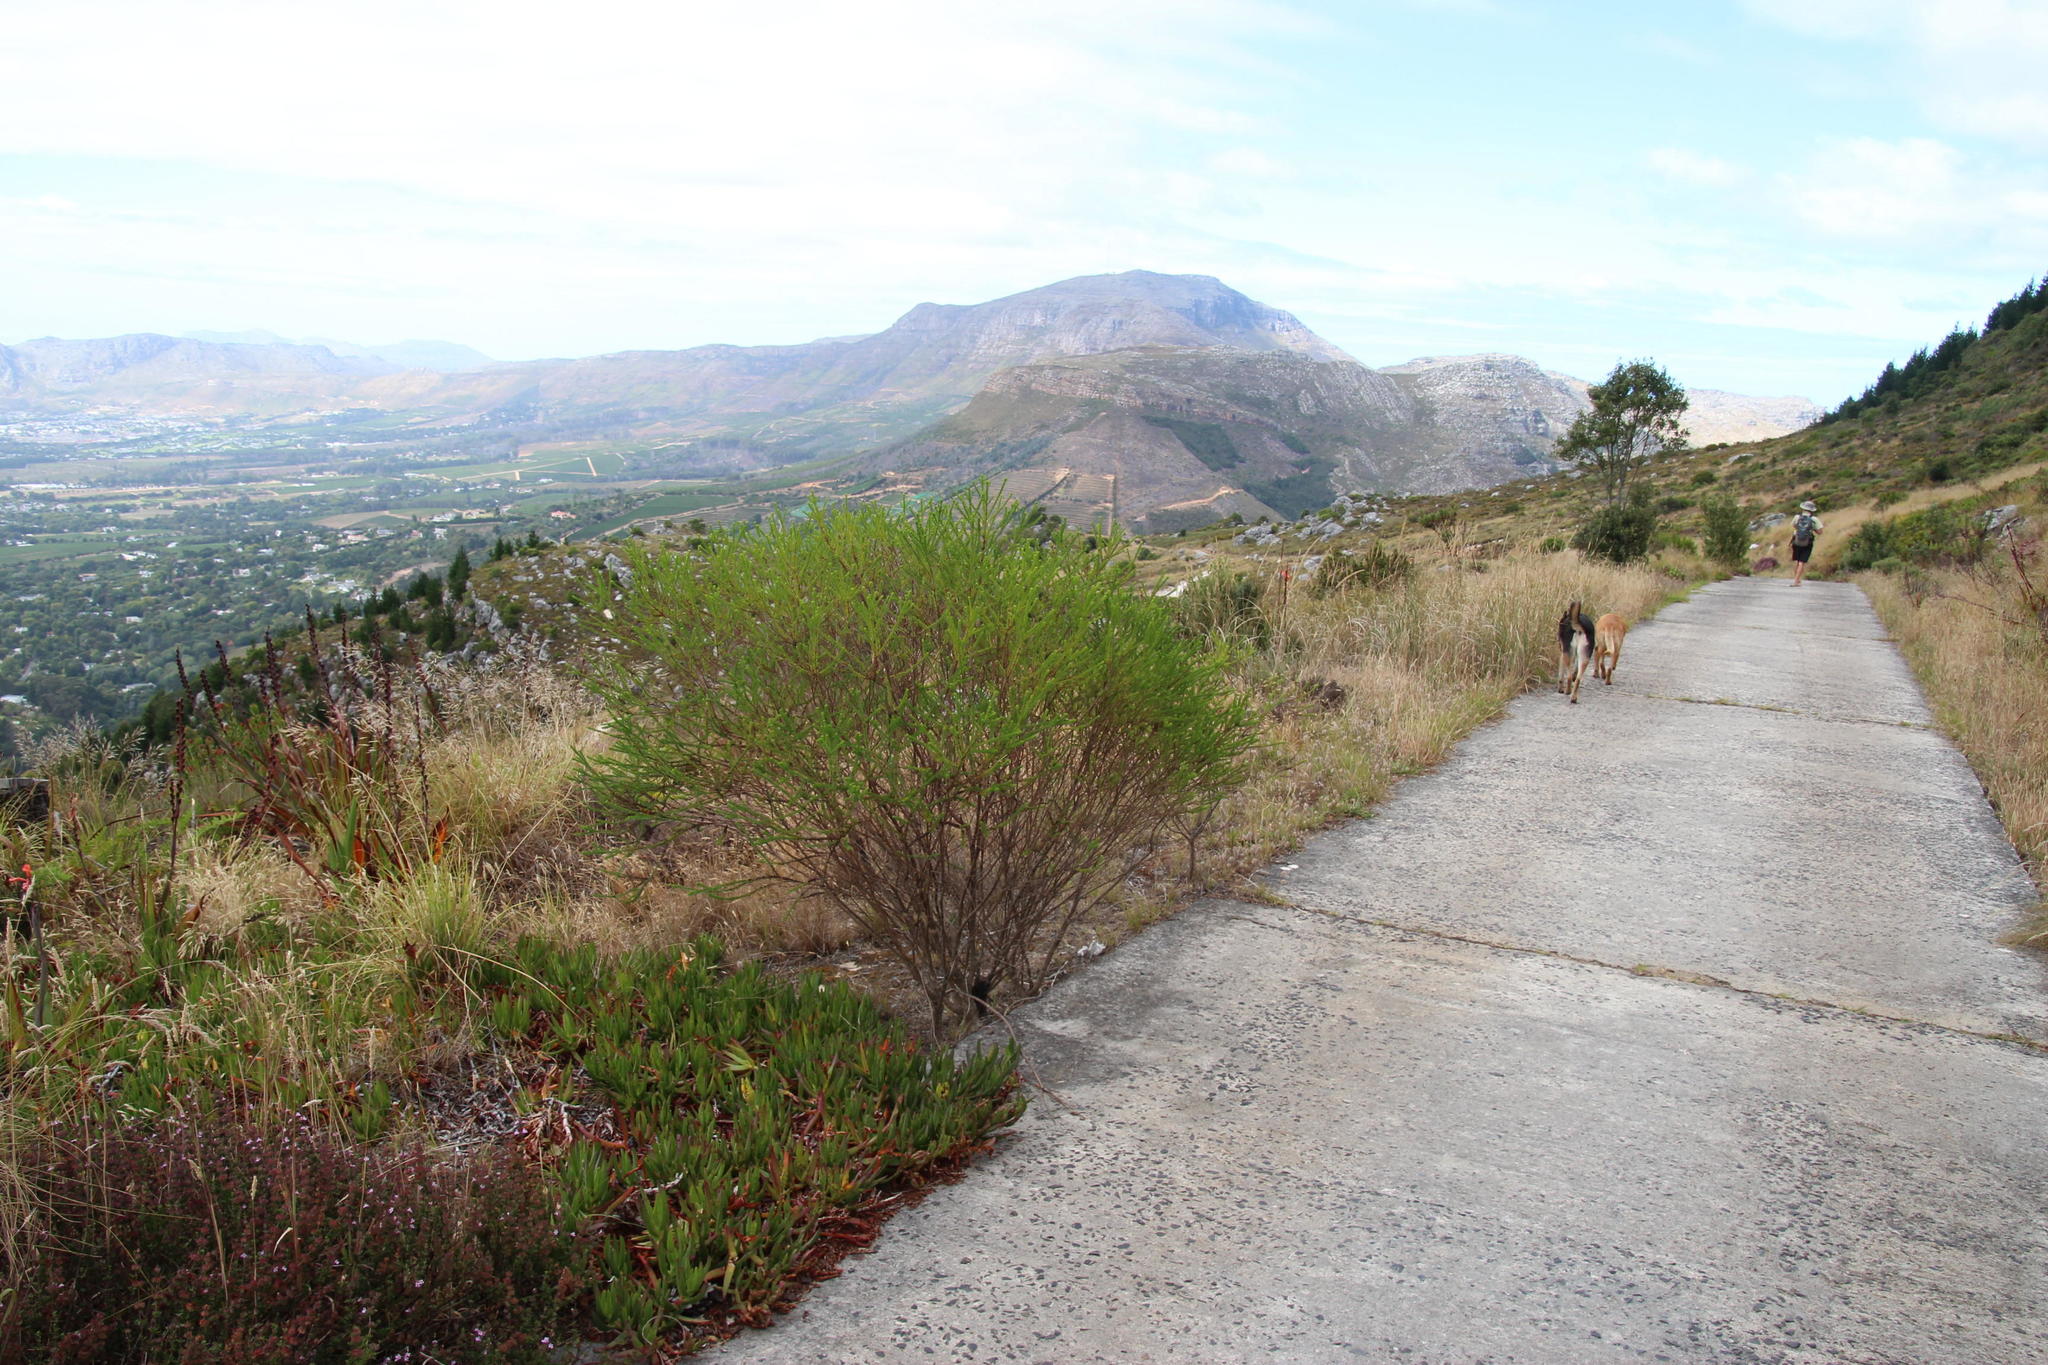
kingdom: Plantae
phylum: Tracheophyta
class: Magnoliopsida
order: Asterales
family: Asteraceae
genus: Euryops
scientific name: Euryops virgineus
